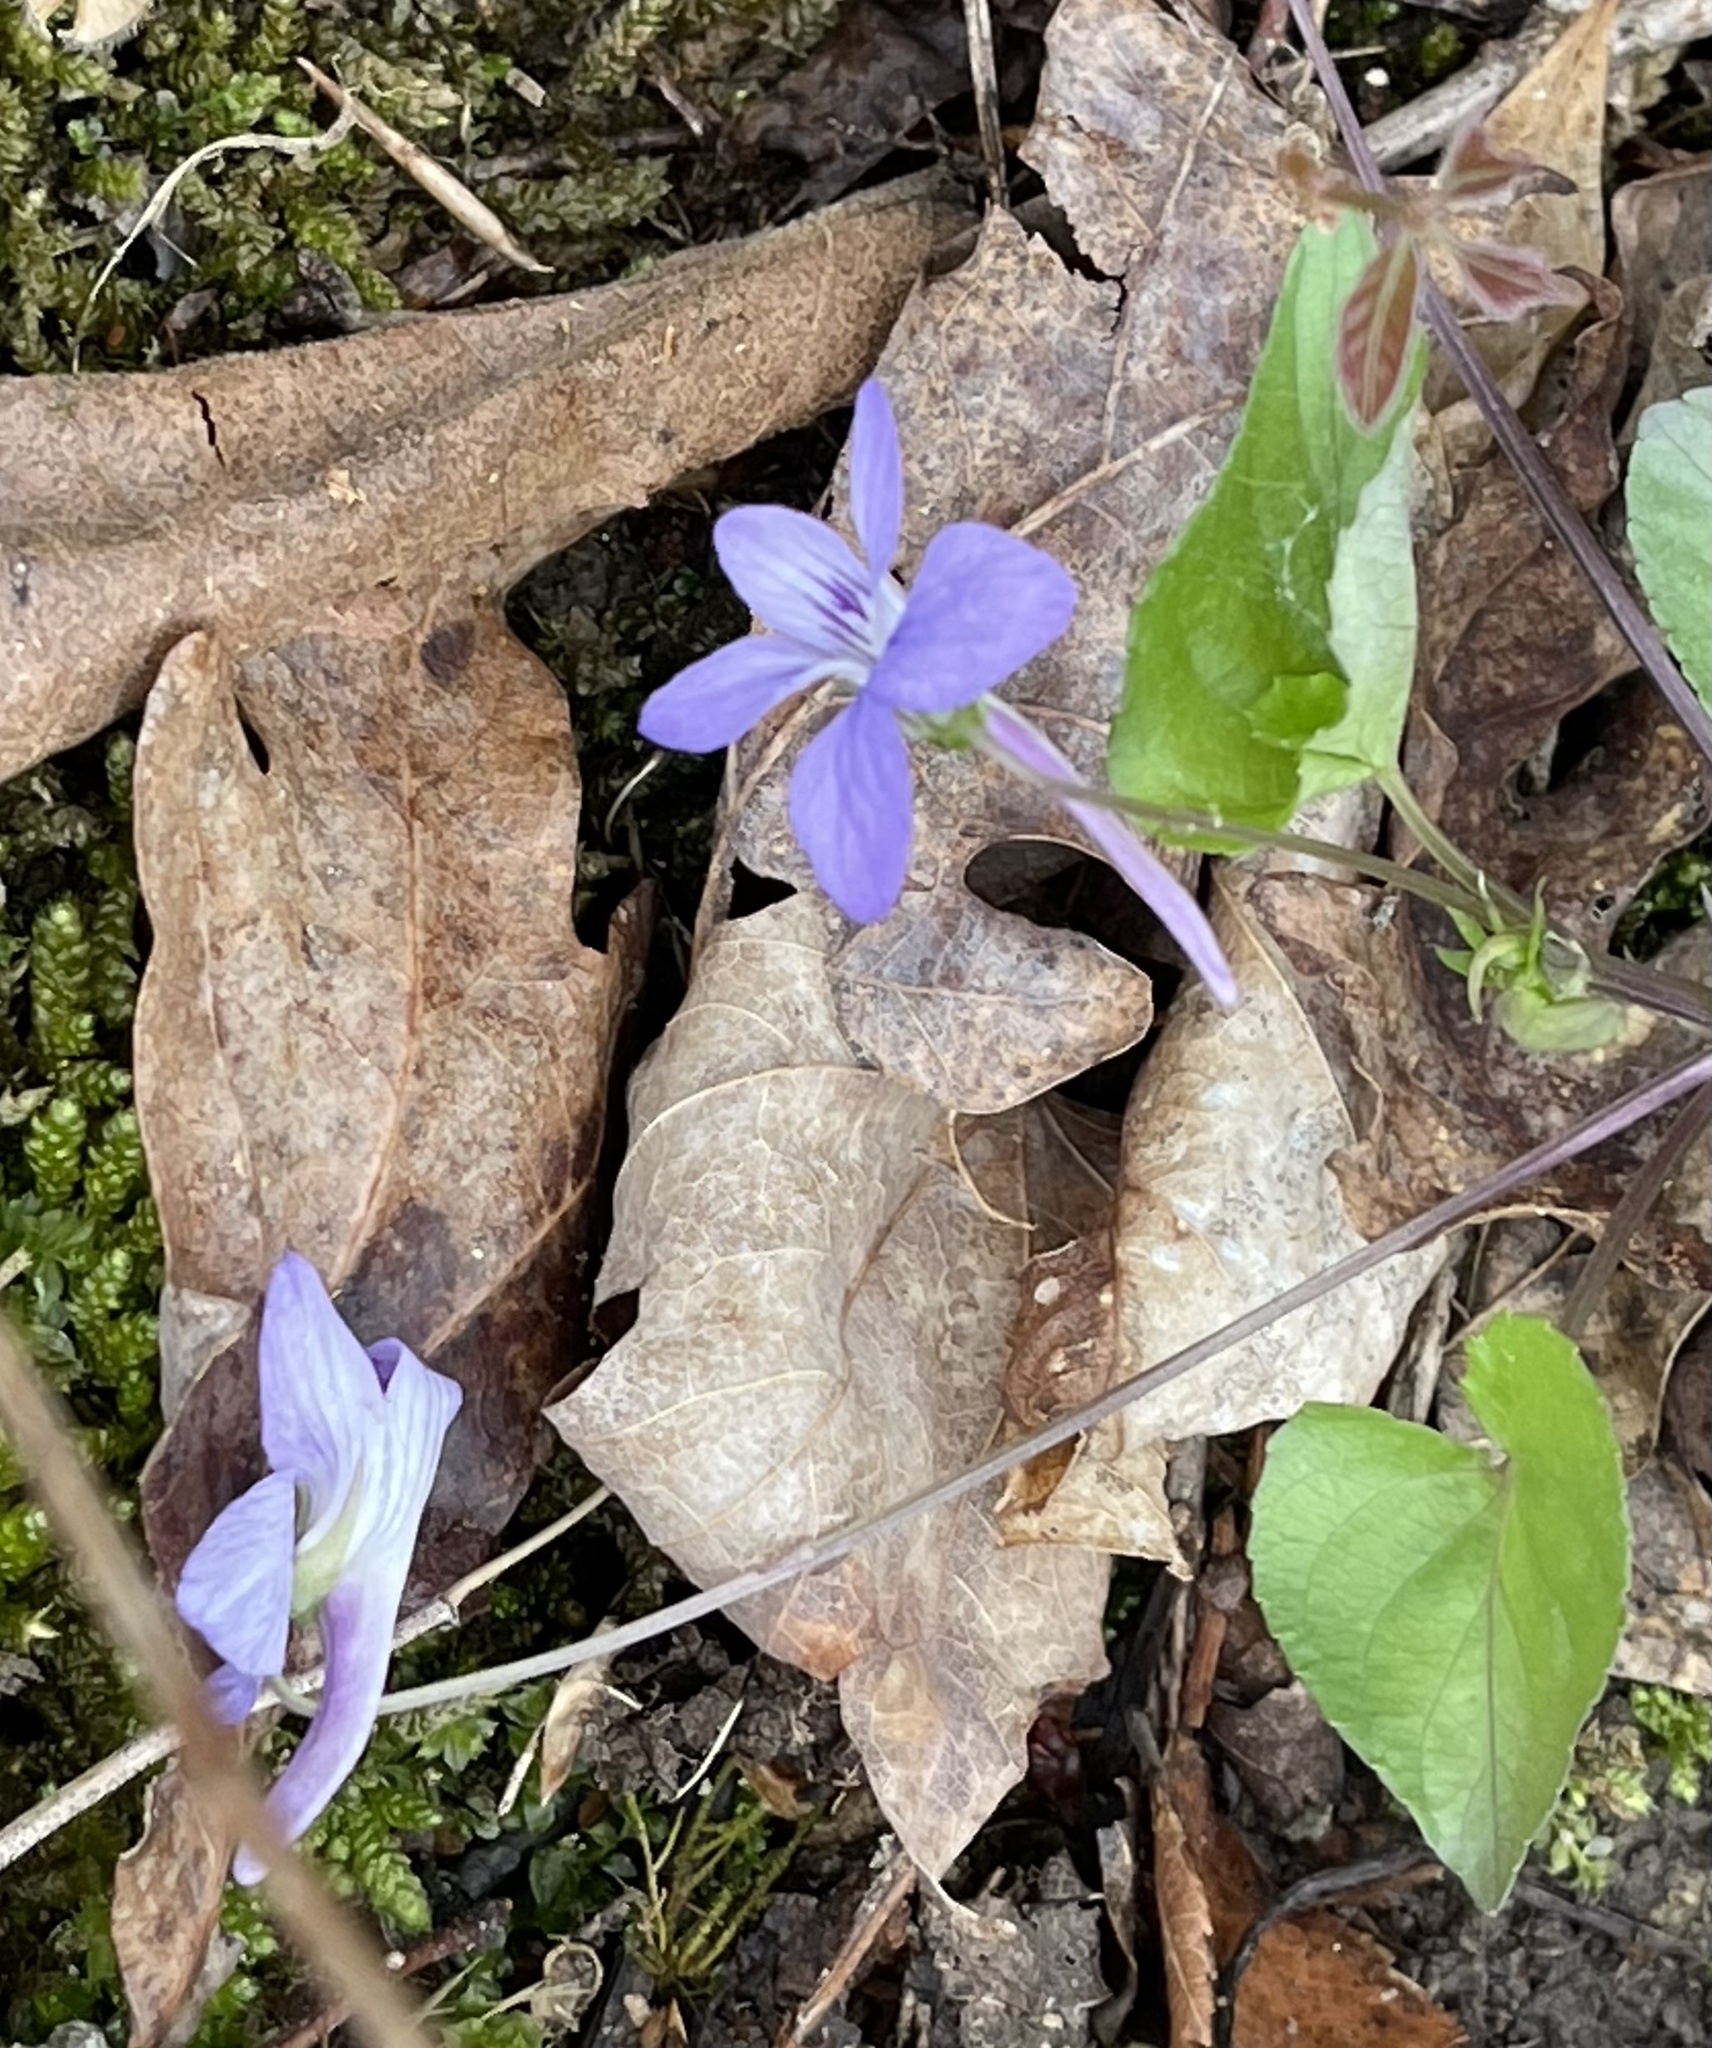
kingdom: Plantae
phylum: Tracheophyta
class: Magnoliopsida
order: Malpighiales
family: Violaceae
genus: Viola
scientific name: Viola rostrata
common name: Long-spur violet
